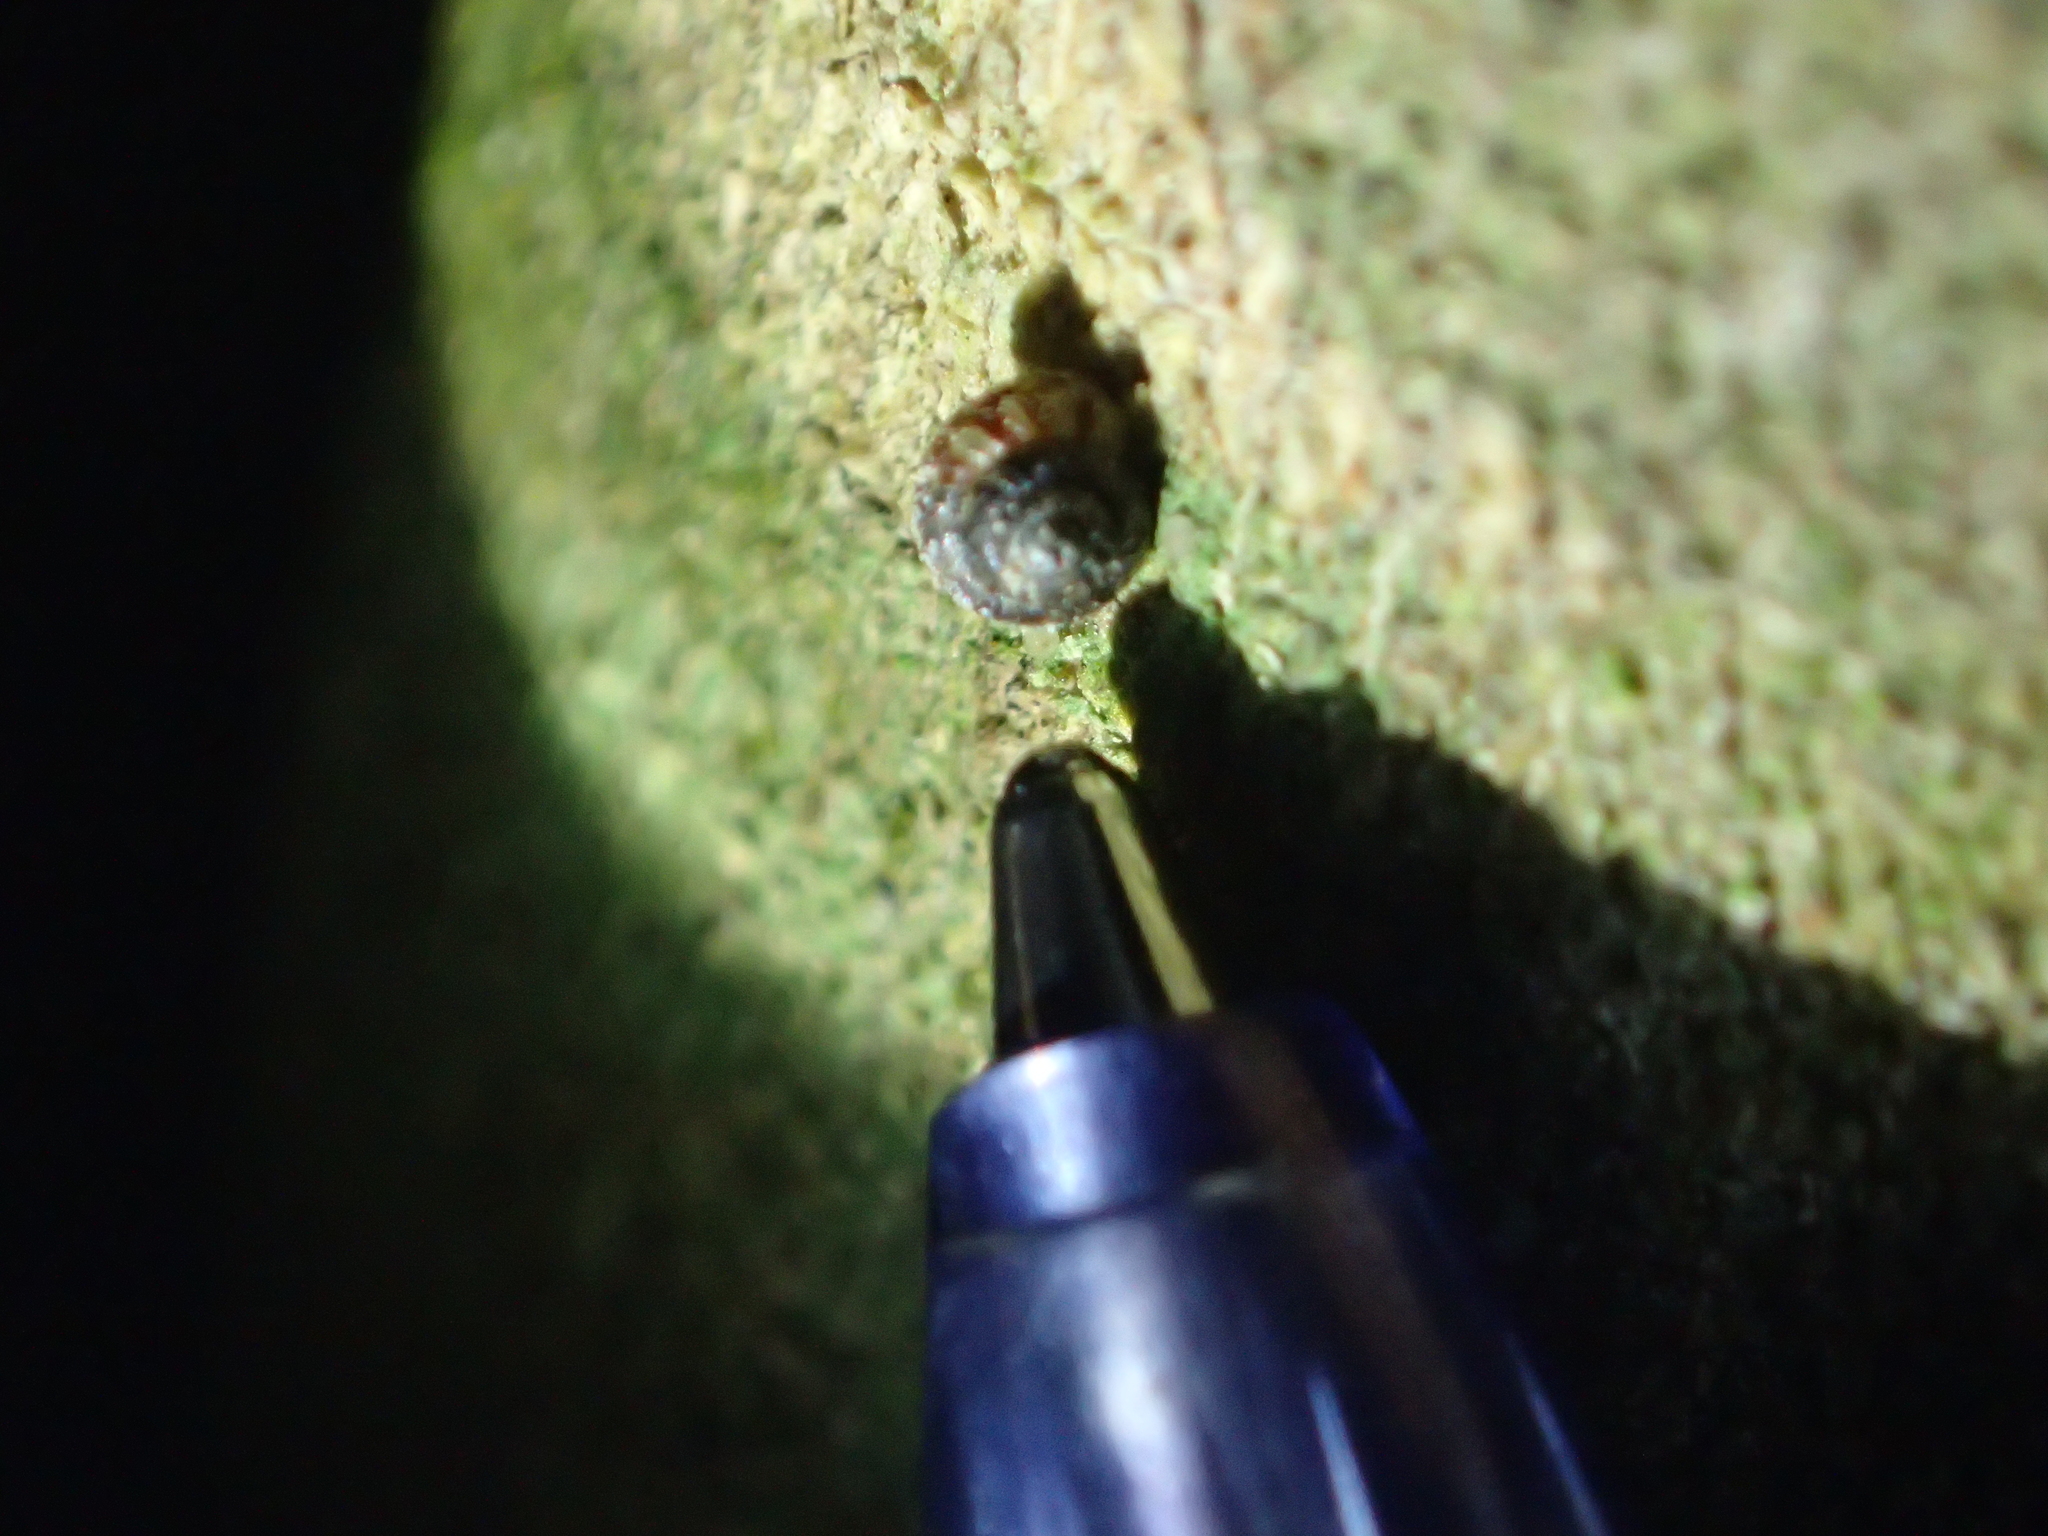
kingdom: Animalia
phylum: Mollusca
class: Gastropoda
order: Stylommatophora
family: Punctidae
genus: Phrixgnathus
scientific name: Phrixgnathus phrynia
